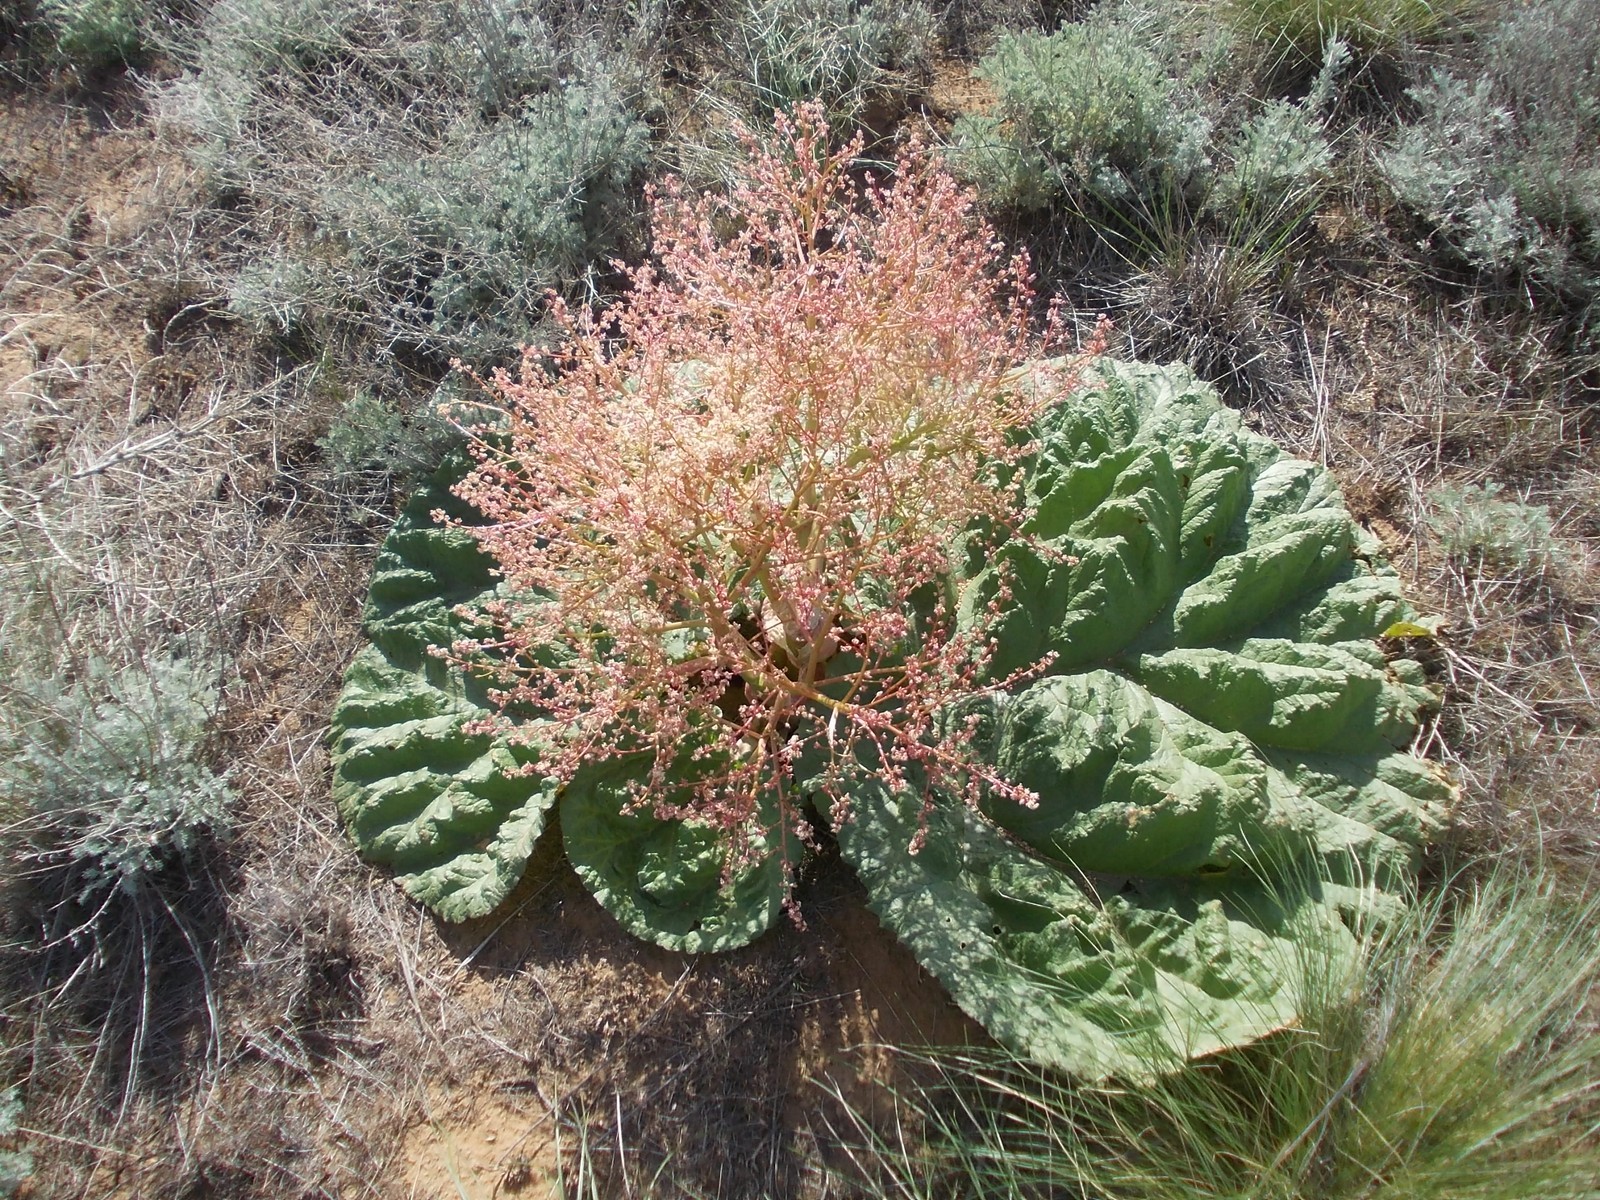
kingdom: Plantae
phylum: Tracheophyta
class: Magnoliopsida
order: Caryophyllales
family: Polygonaceae
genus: Rheum
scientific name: Rheum tataricum
